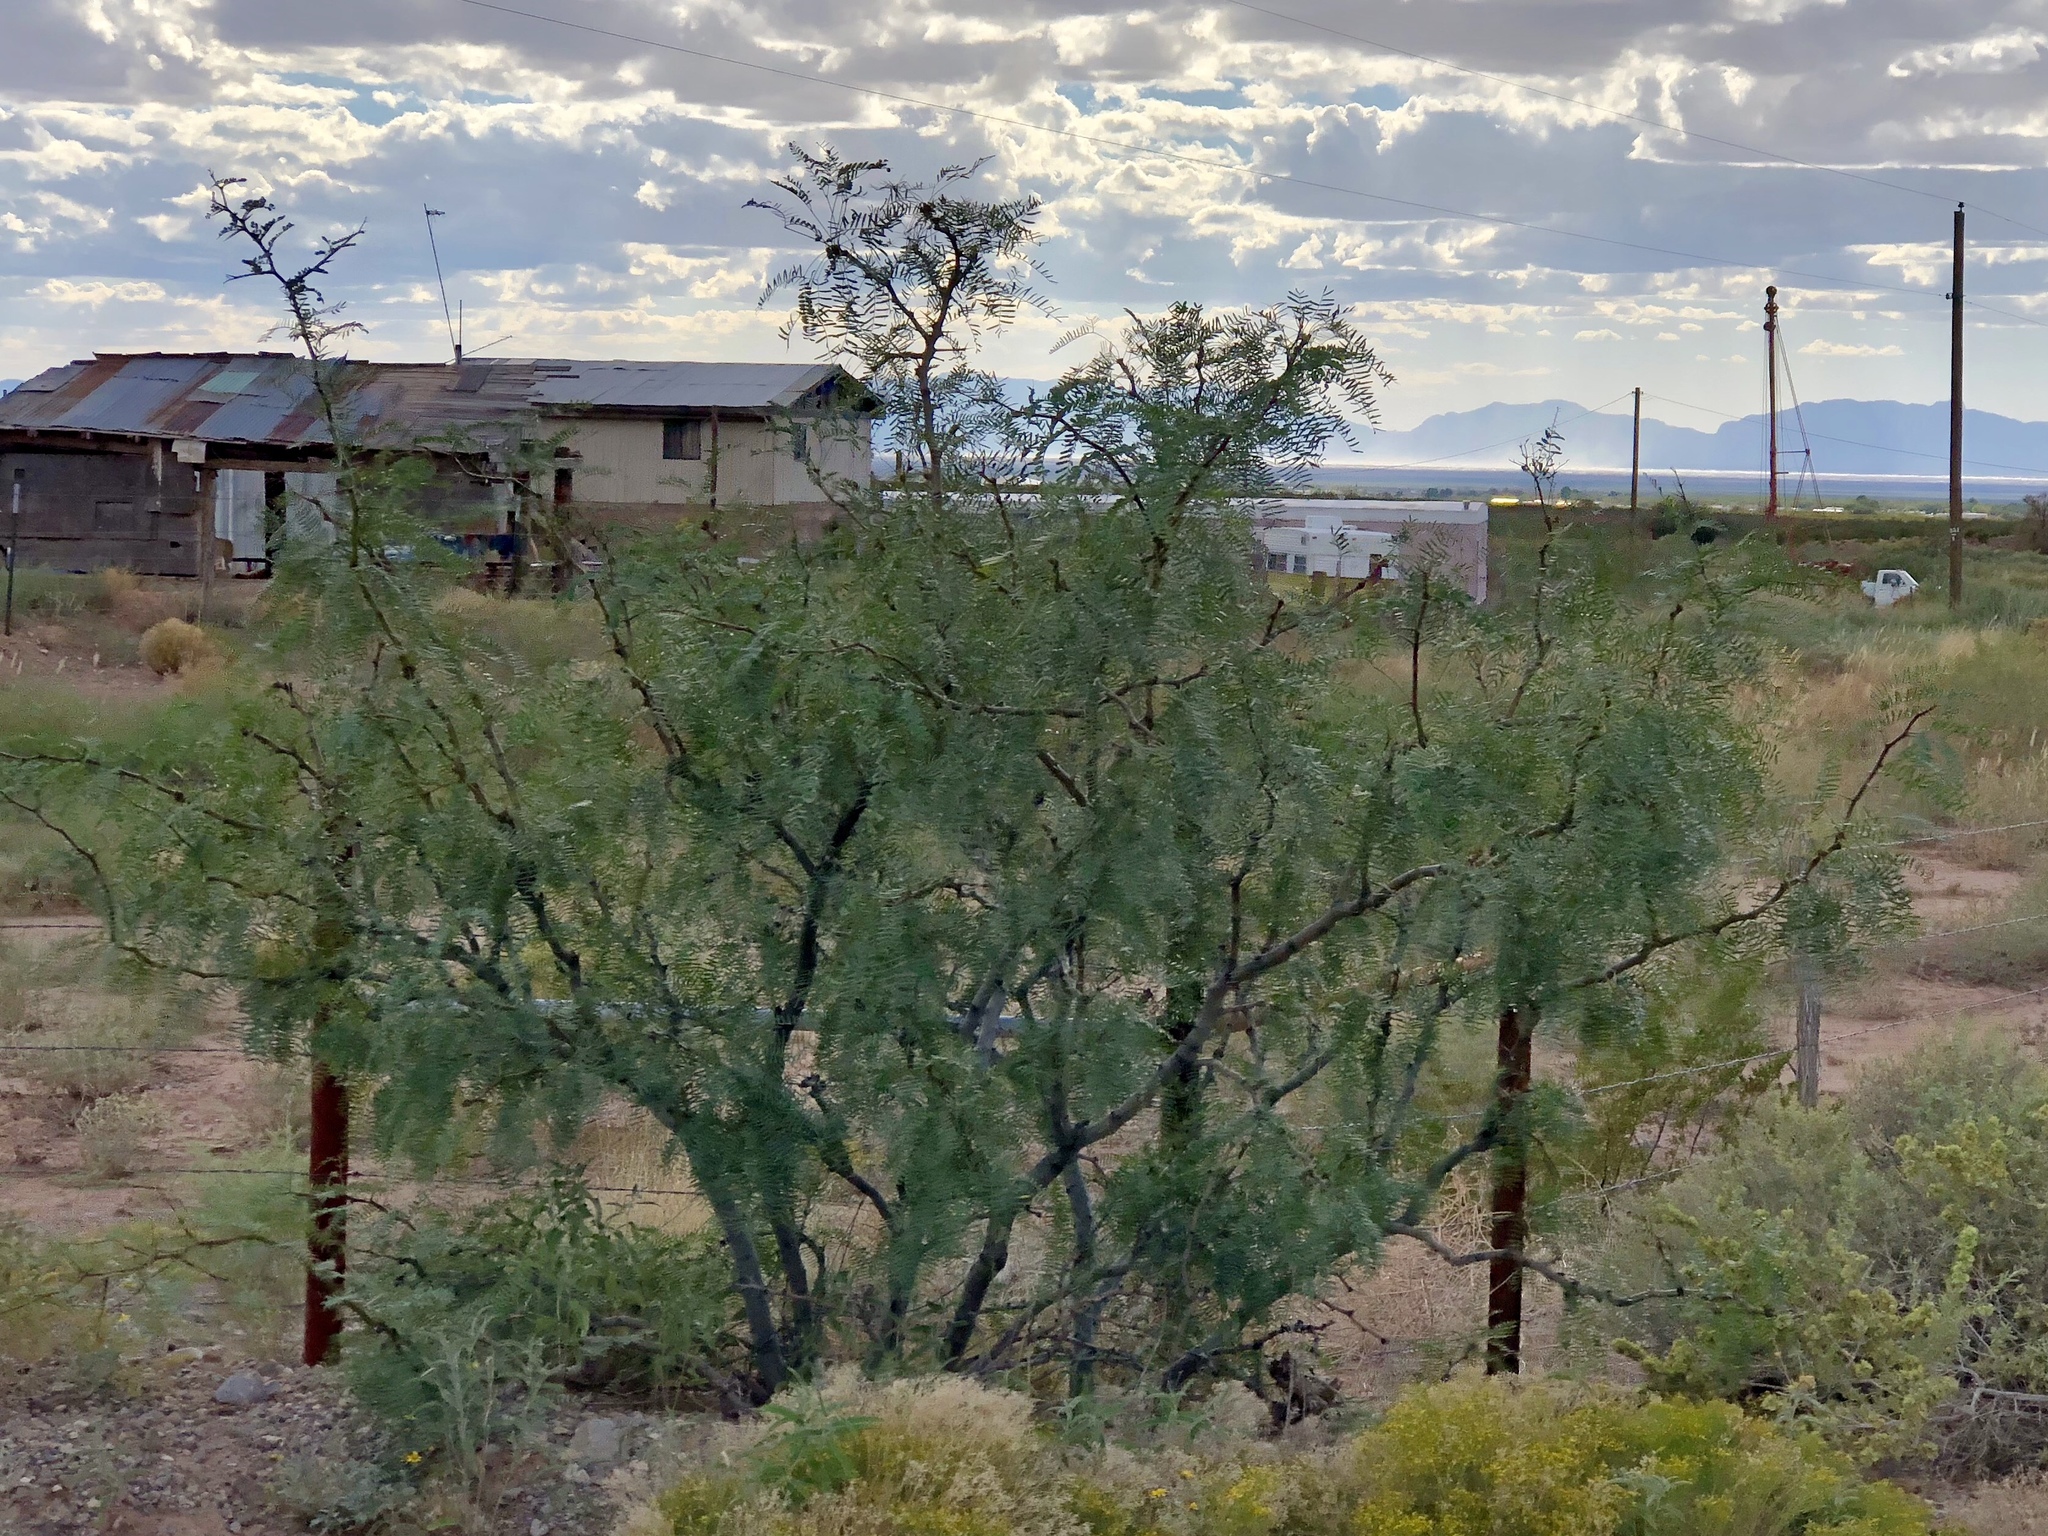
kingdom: Plantae
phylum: Tracheophyta
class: Magnoliopsida
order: Fabales
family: Fabaceae
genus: Prosopis
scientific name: Prosopis glandulosa
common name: Honey mesquite
